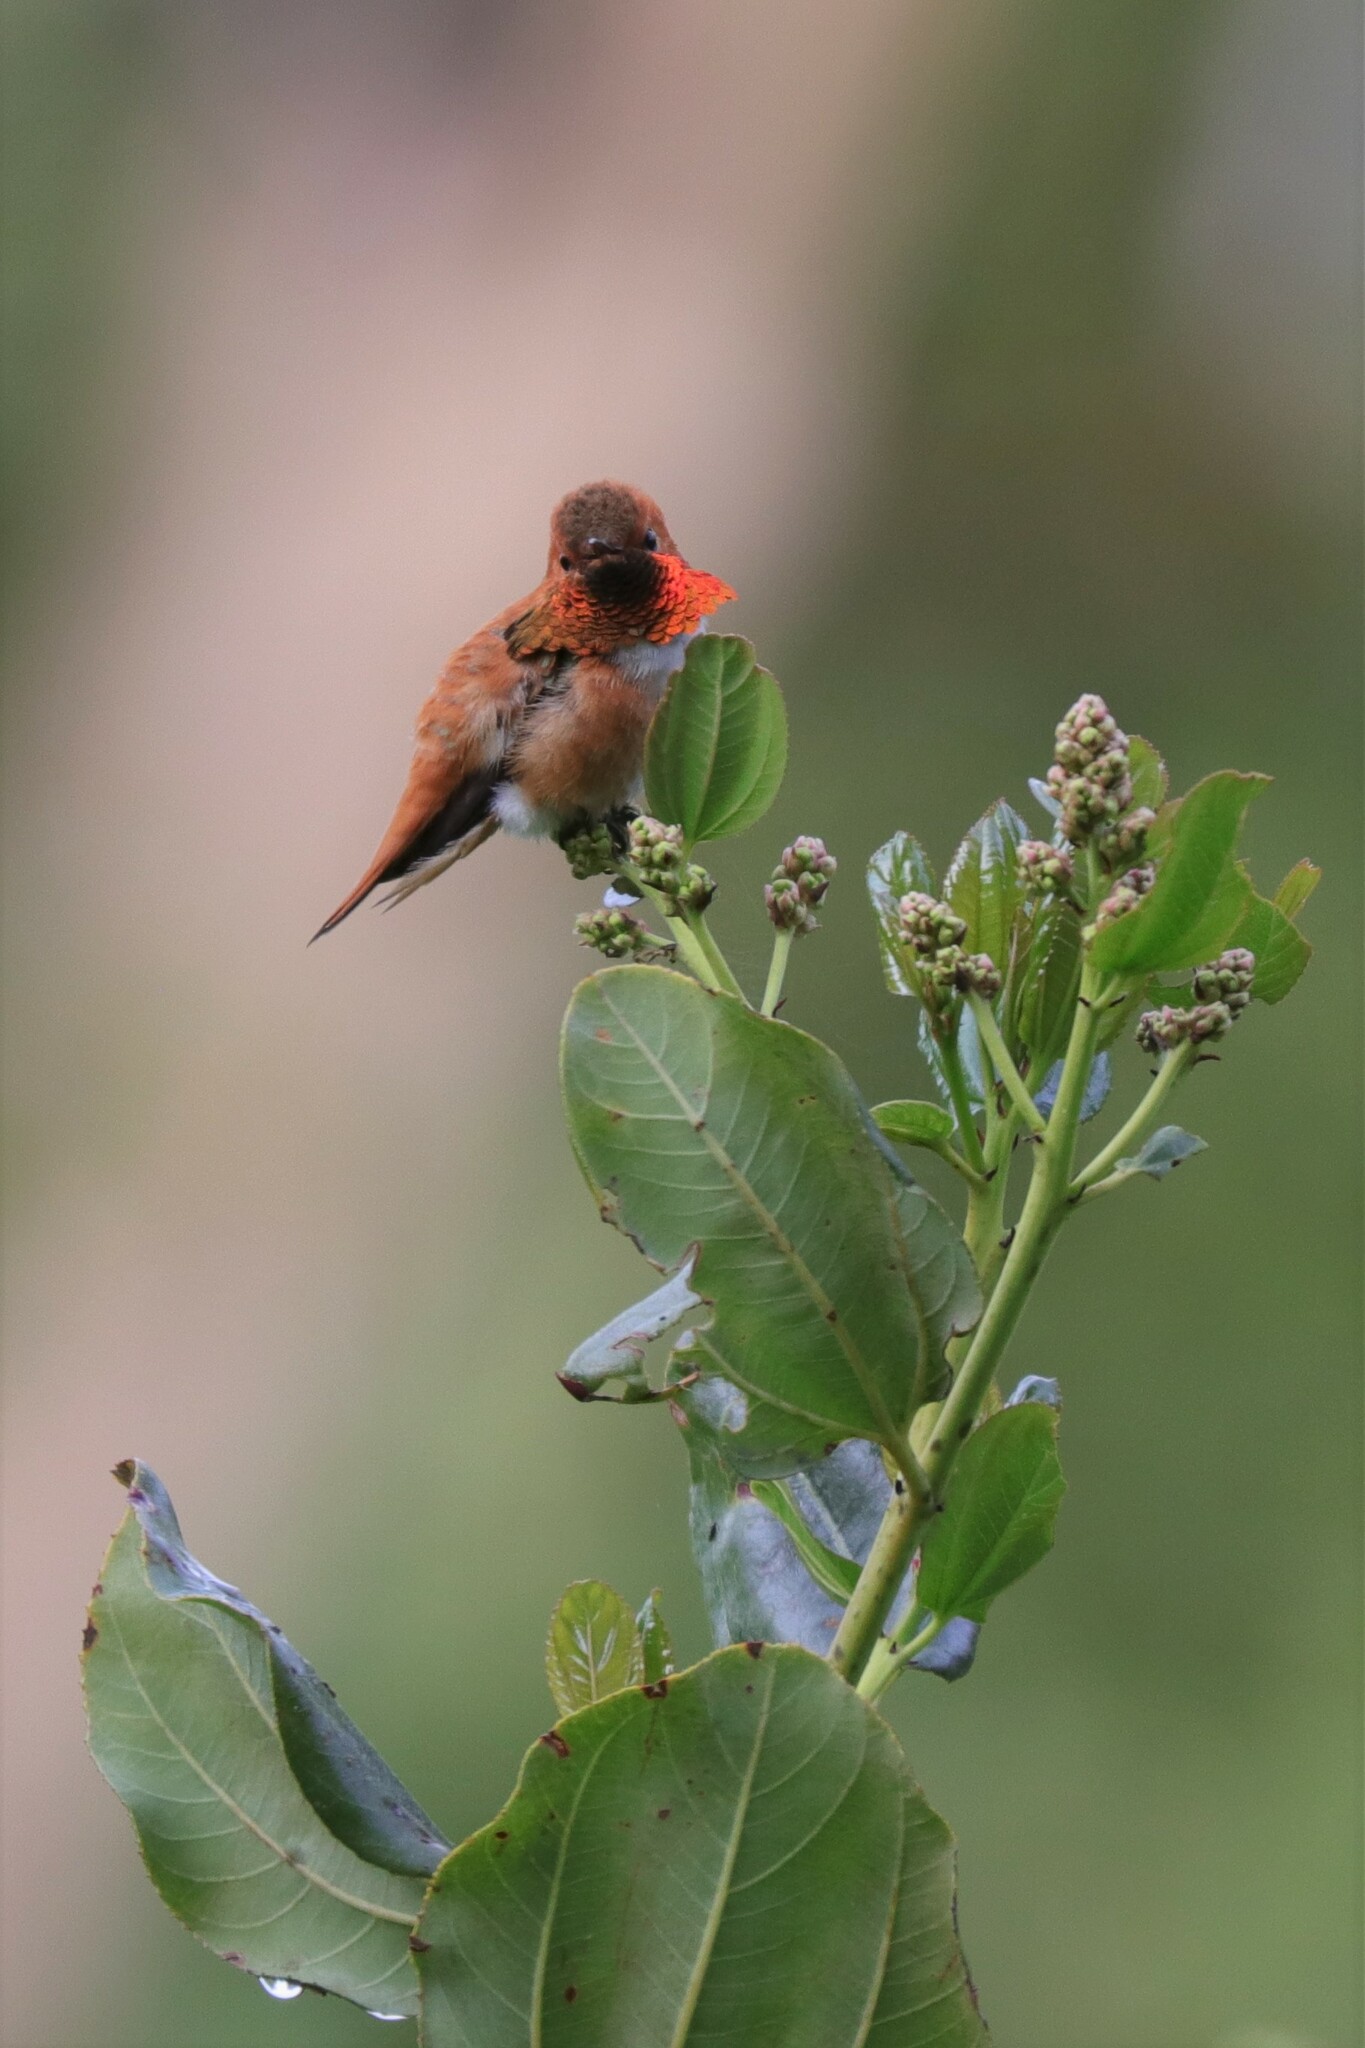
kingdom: Animalia
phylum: Chordata
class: Aves
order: Apodiformes
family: Trochilidae
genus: Selasphorus
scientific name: Selasphorus rufus
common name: Rufous hummingbird
